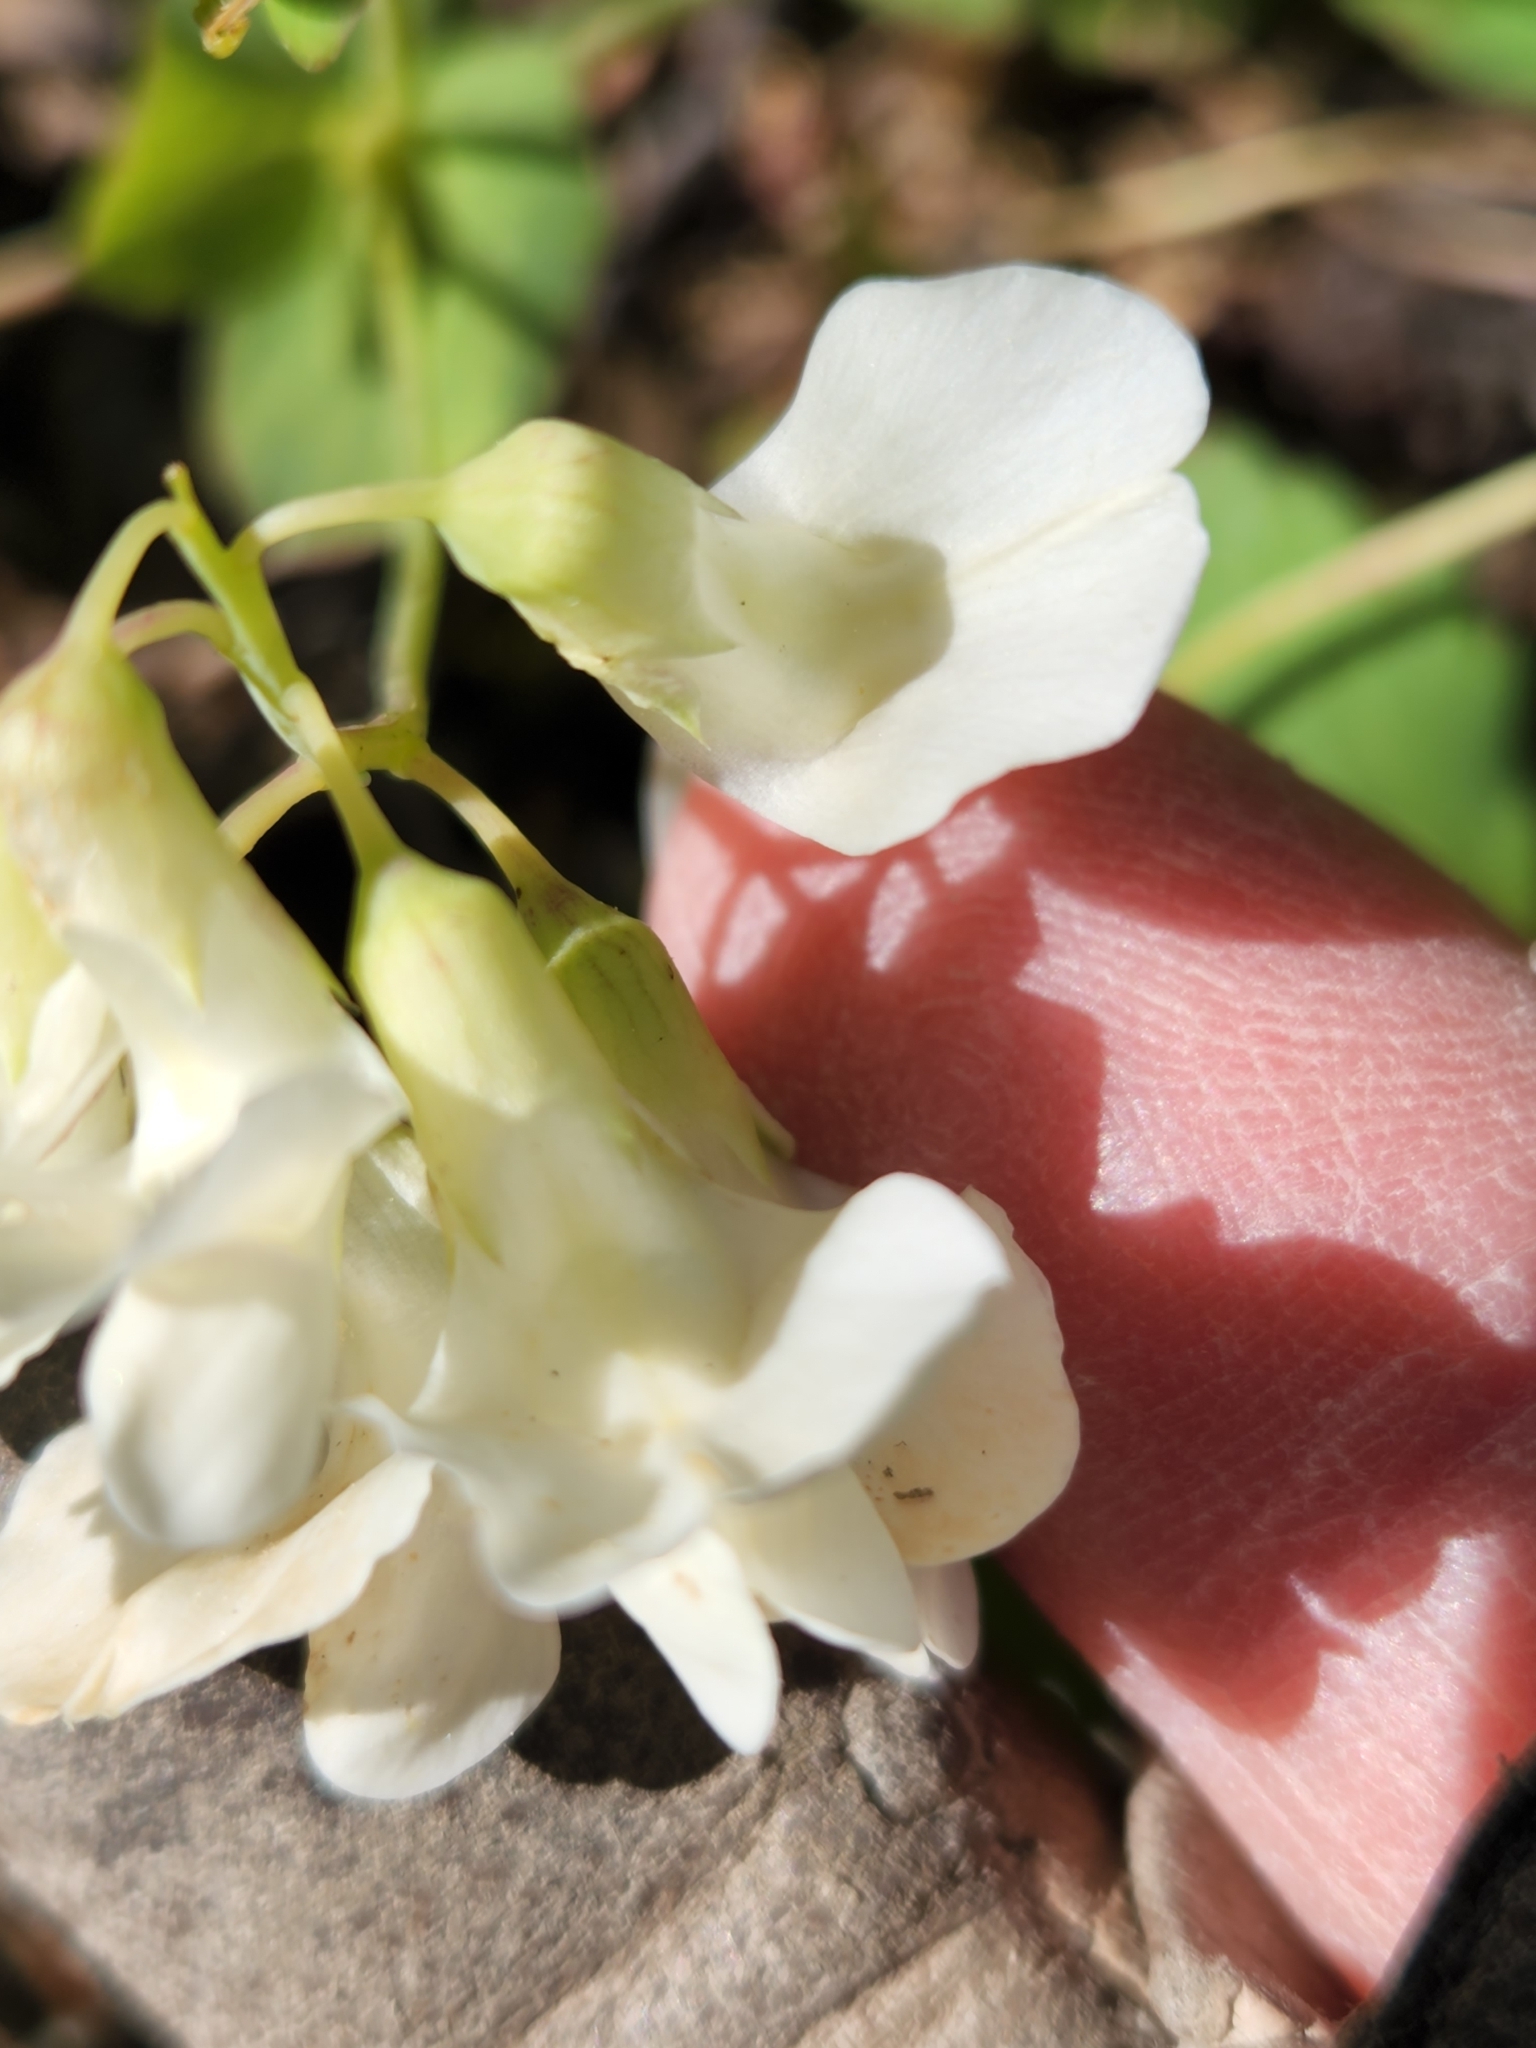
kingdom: Plantae
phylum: Tracheophyta
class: Magnoliopsida
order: Fabales
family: Fabaceae
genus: Lathyrus
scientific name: Lathyrus ochroleucus
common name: Pale vetchling
